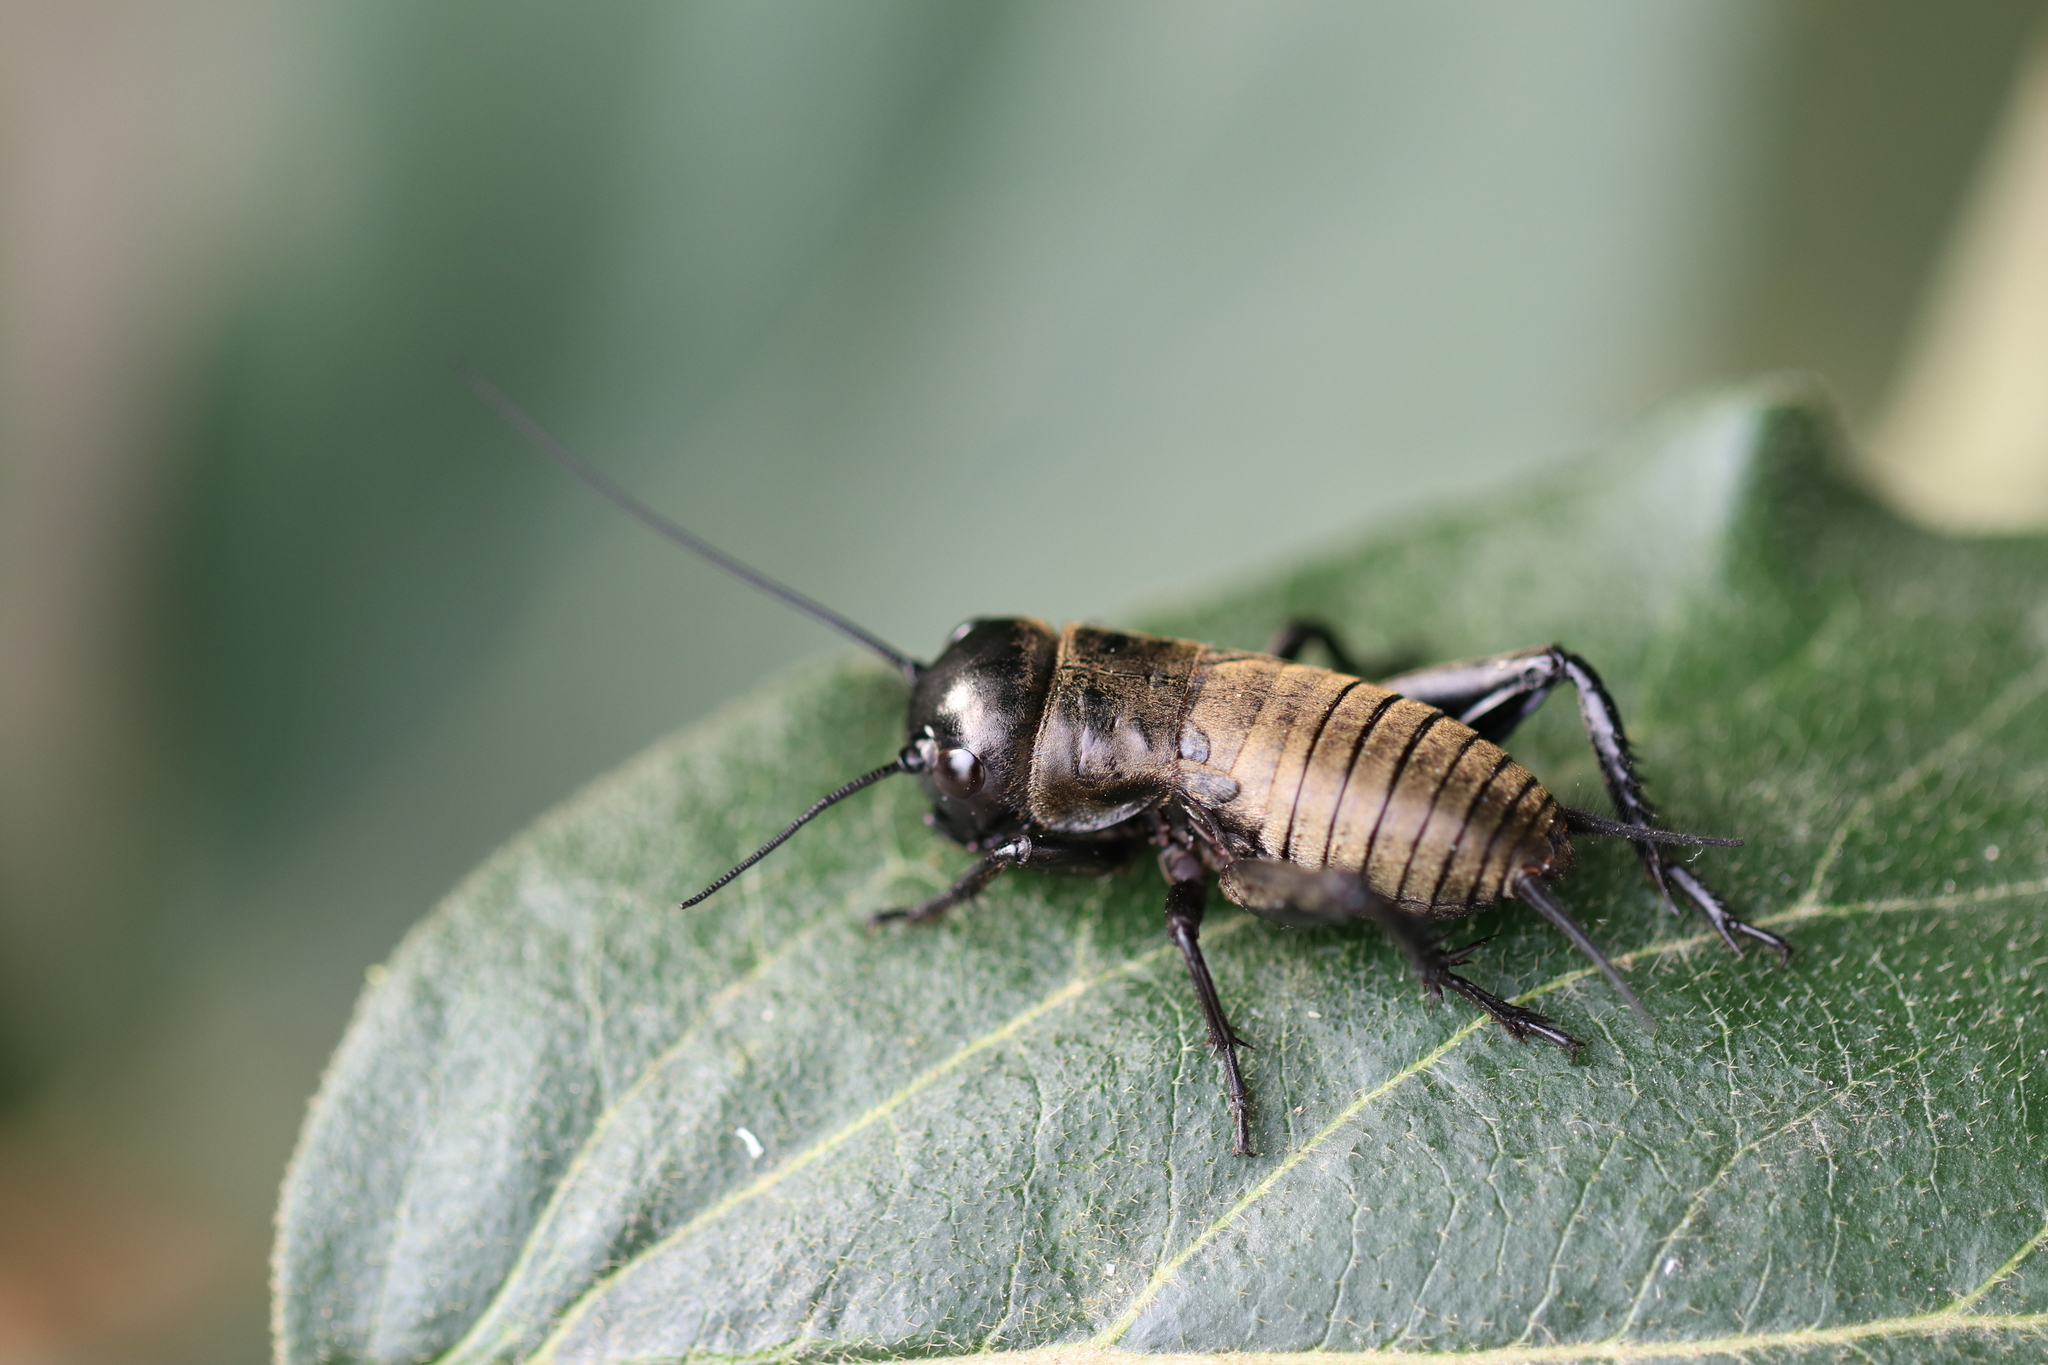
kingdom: Animalia
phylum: Arthropoda
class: Insecta
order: Orthoptera
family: Gryllidae
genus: Gryllus
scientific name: Gryllus campestris
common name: Field cricket
